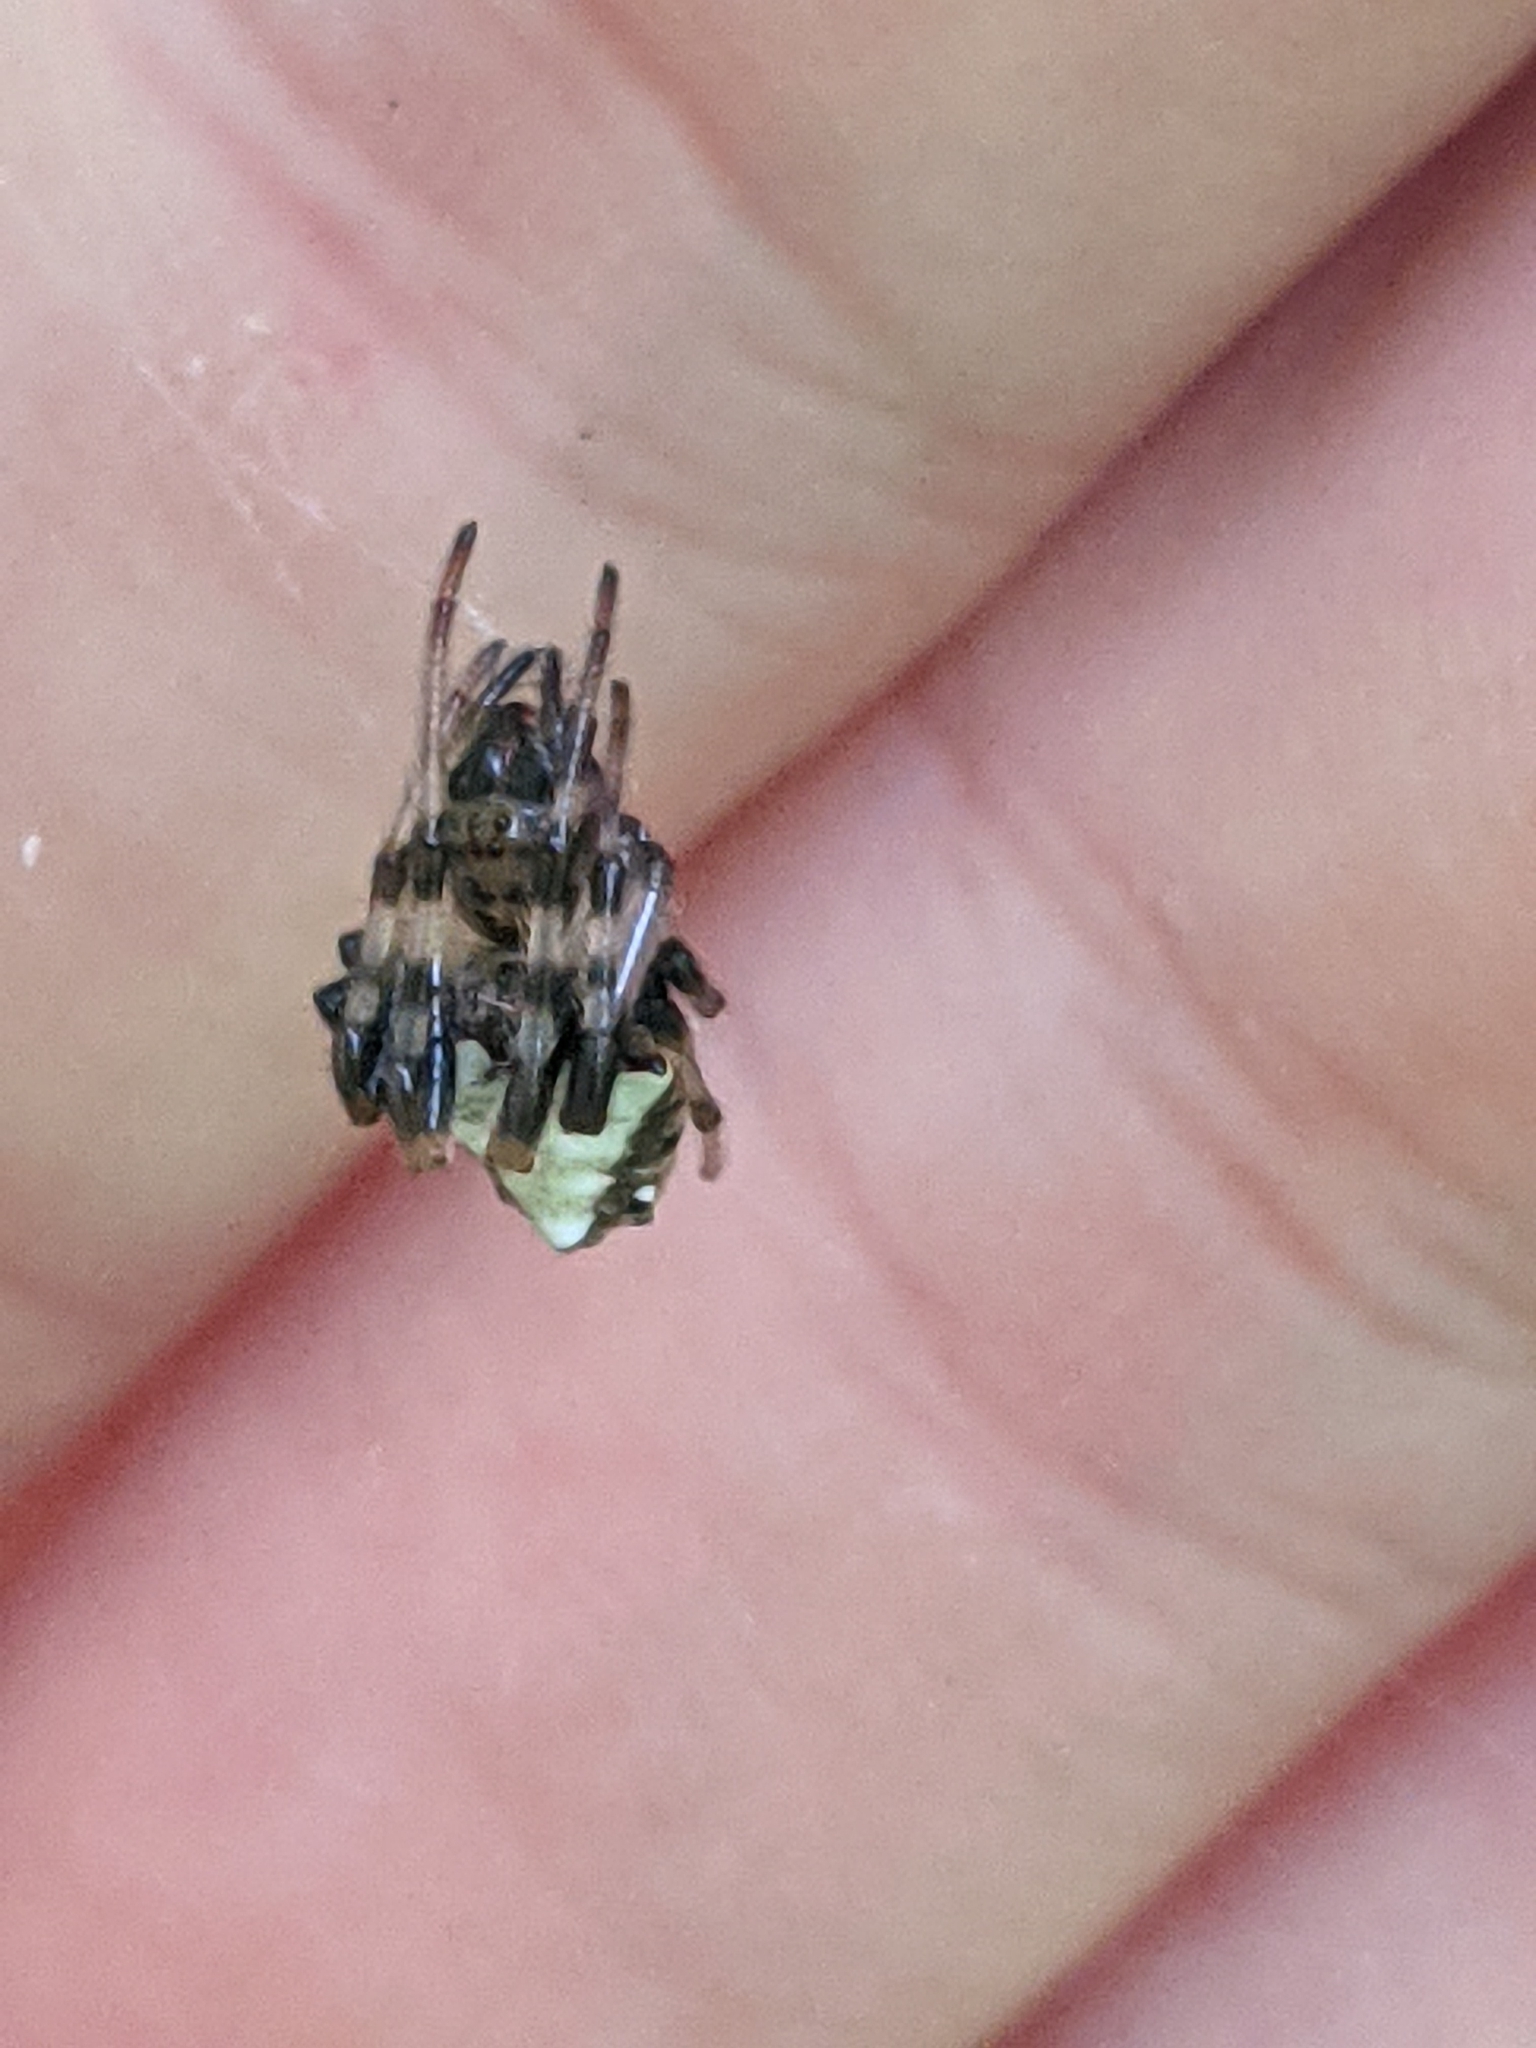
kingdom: Animalia
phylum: Arthropoda
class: Arachnida
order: Araneae
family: Araneidae
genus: Verrucosa
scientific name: Verrucosa arenata
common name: Orb weavers
